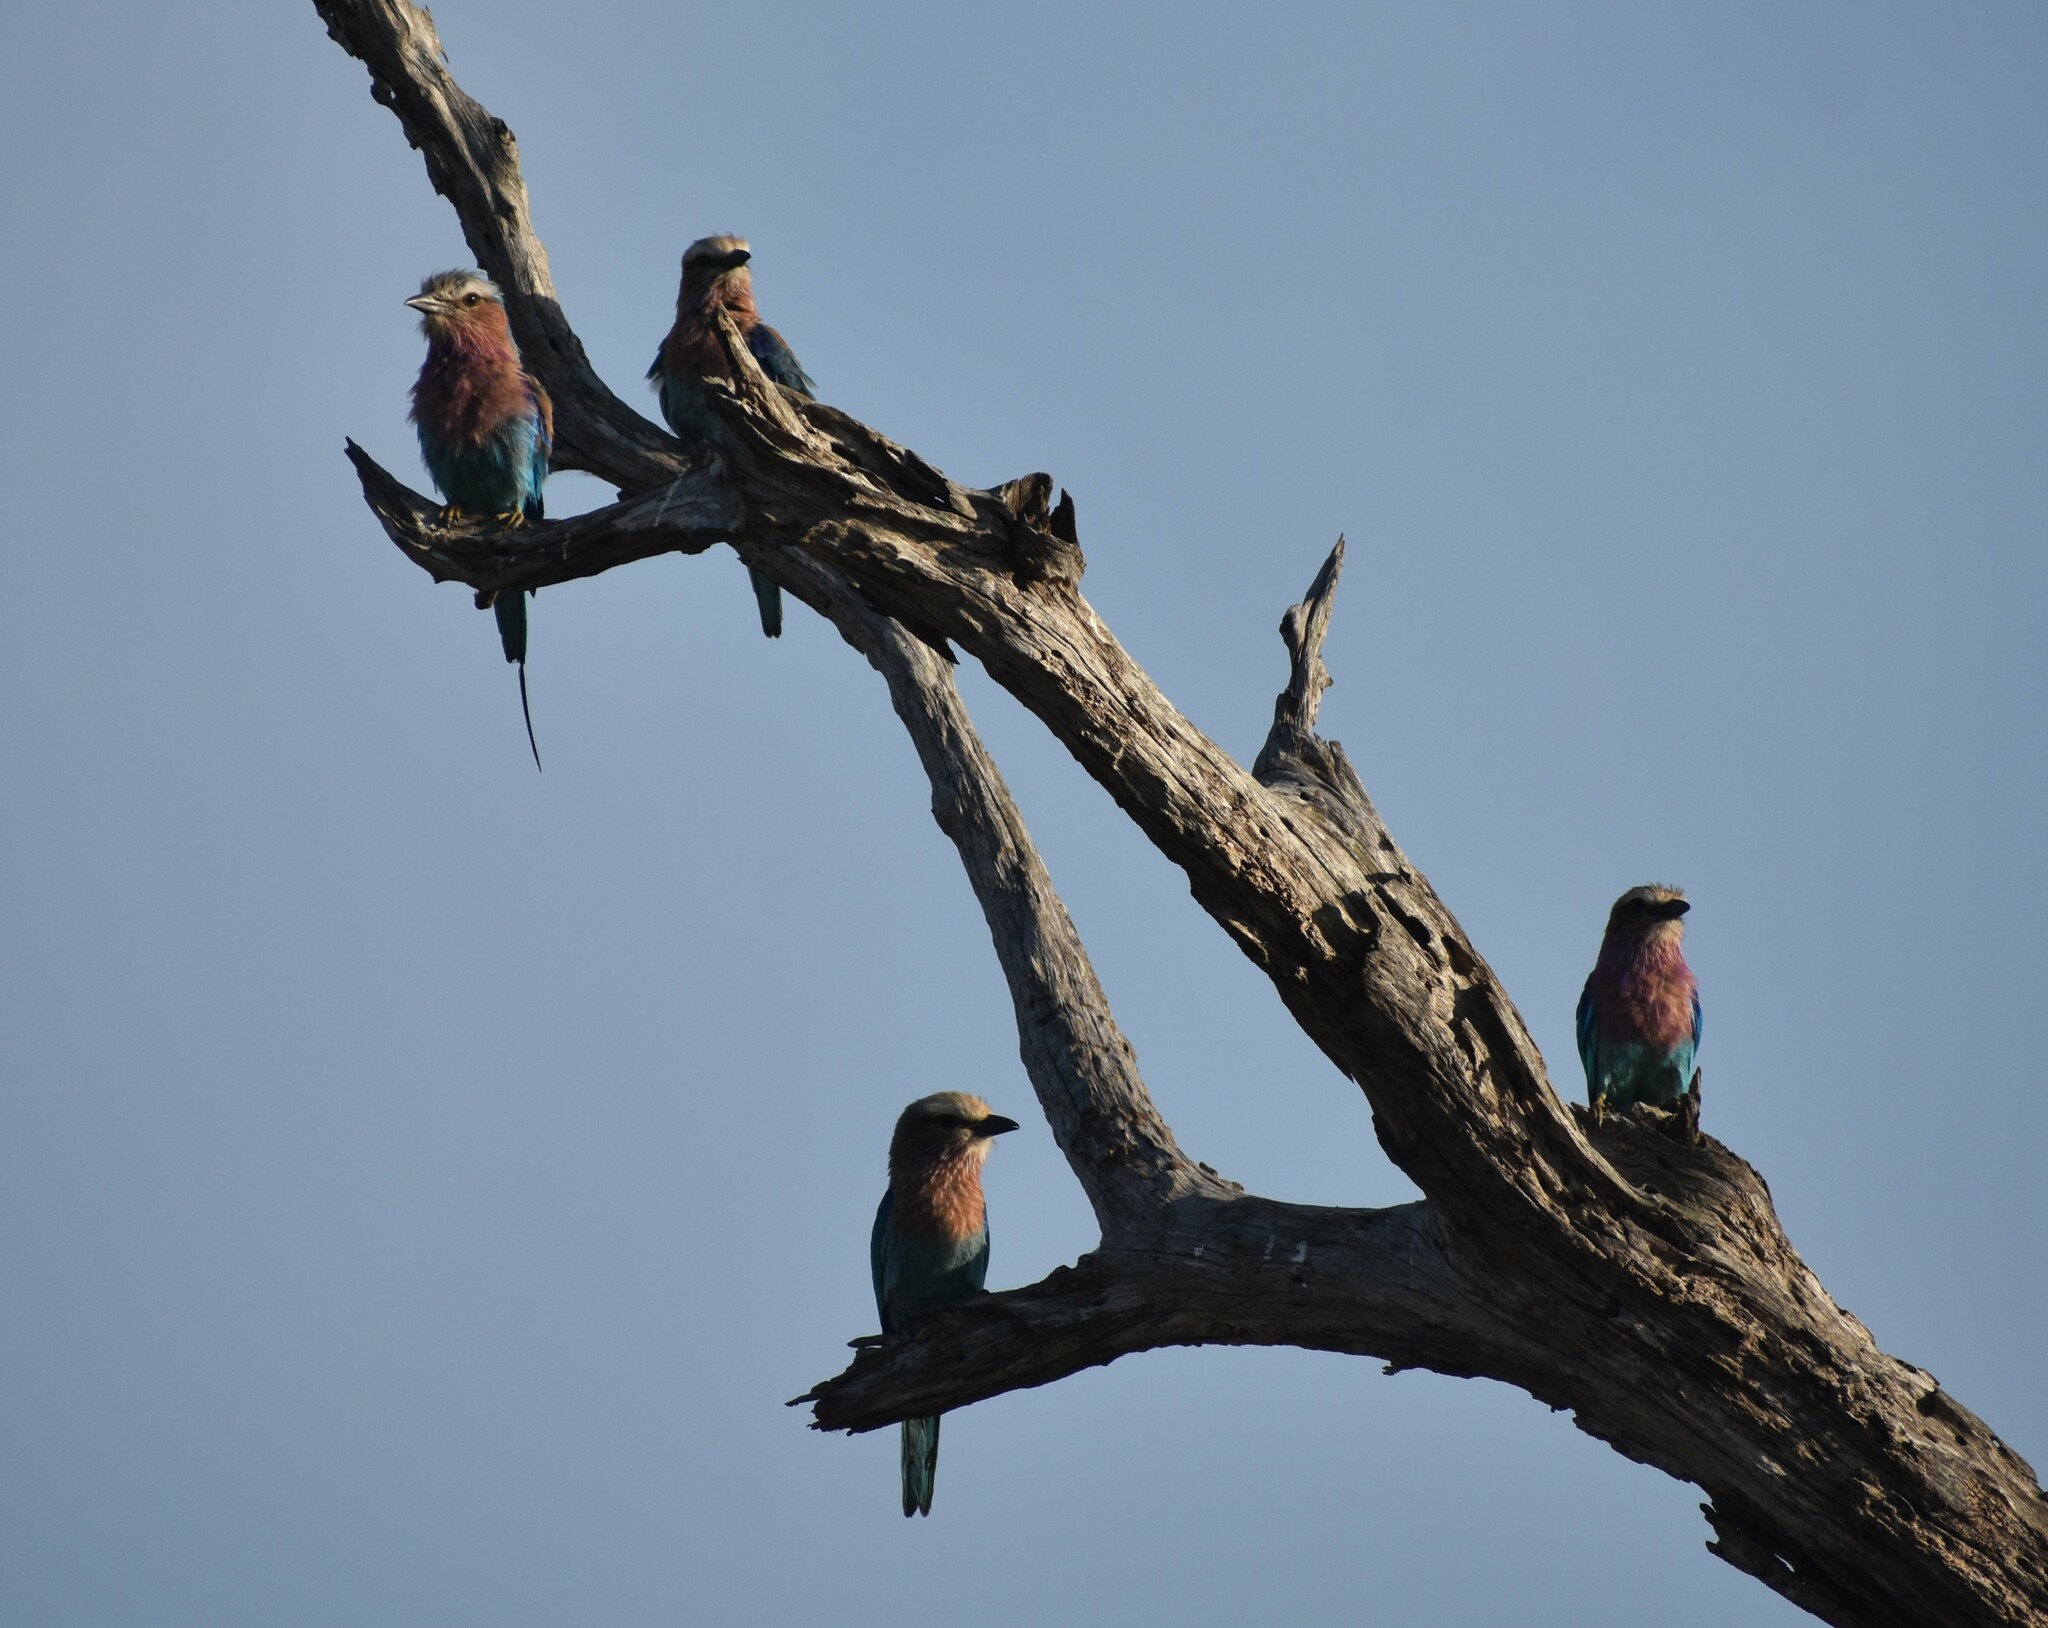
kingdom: Animalia
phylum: Chordata
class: Aves
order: Coraciiformes
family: Coraciidae
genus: Coracias
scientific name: Coracias caudatus
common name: Lilac-breasted roller
